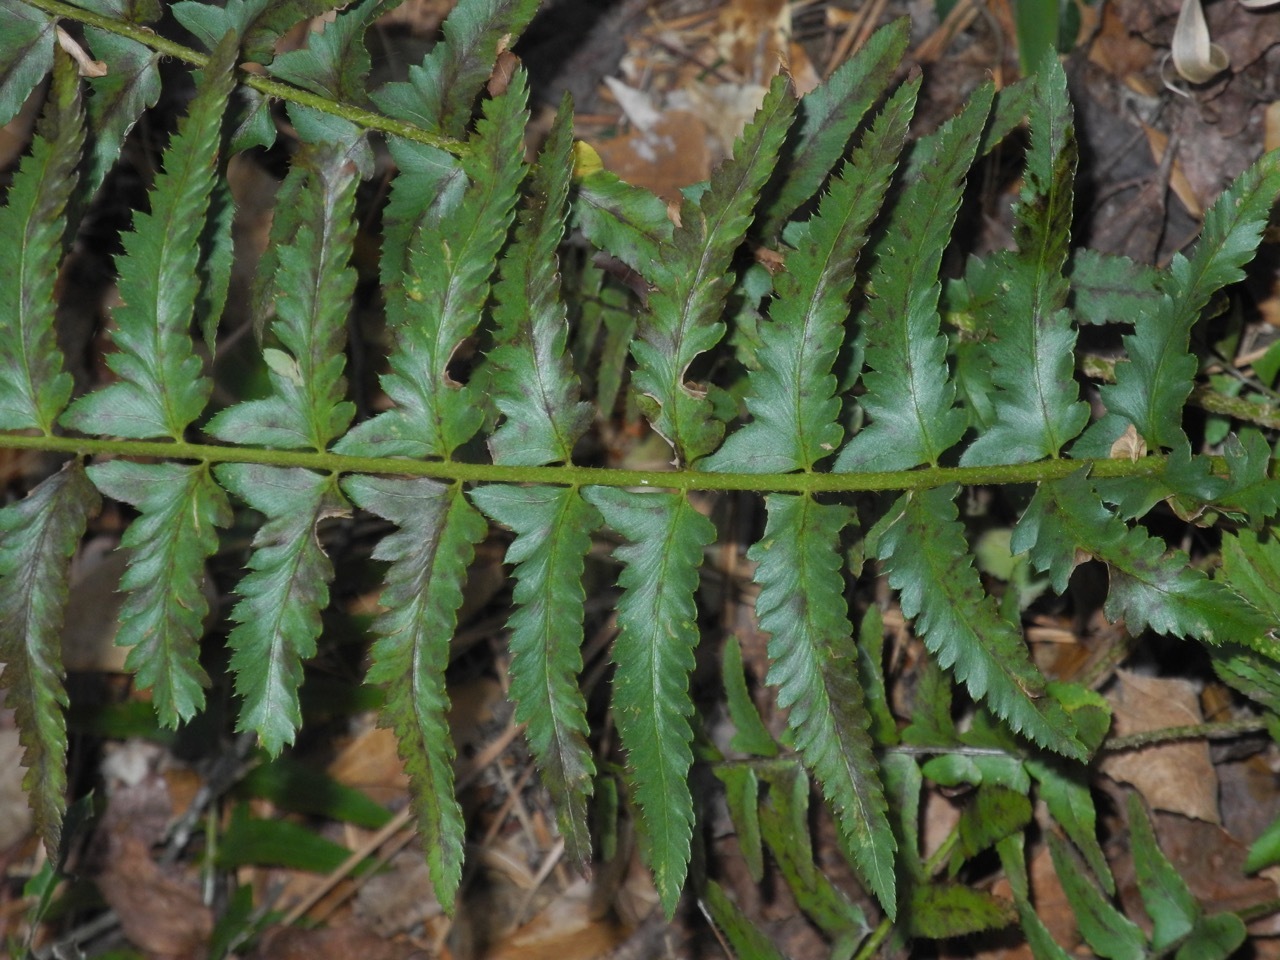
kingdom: Plantae
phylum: Tracheophyta
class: Polypodiopsida
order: Polypodiales
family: Dryopteridaceae
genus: Polystichum
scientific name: Polystichum acrostichoides
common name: Christmas fern
